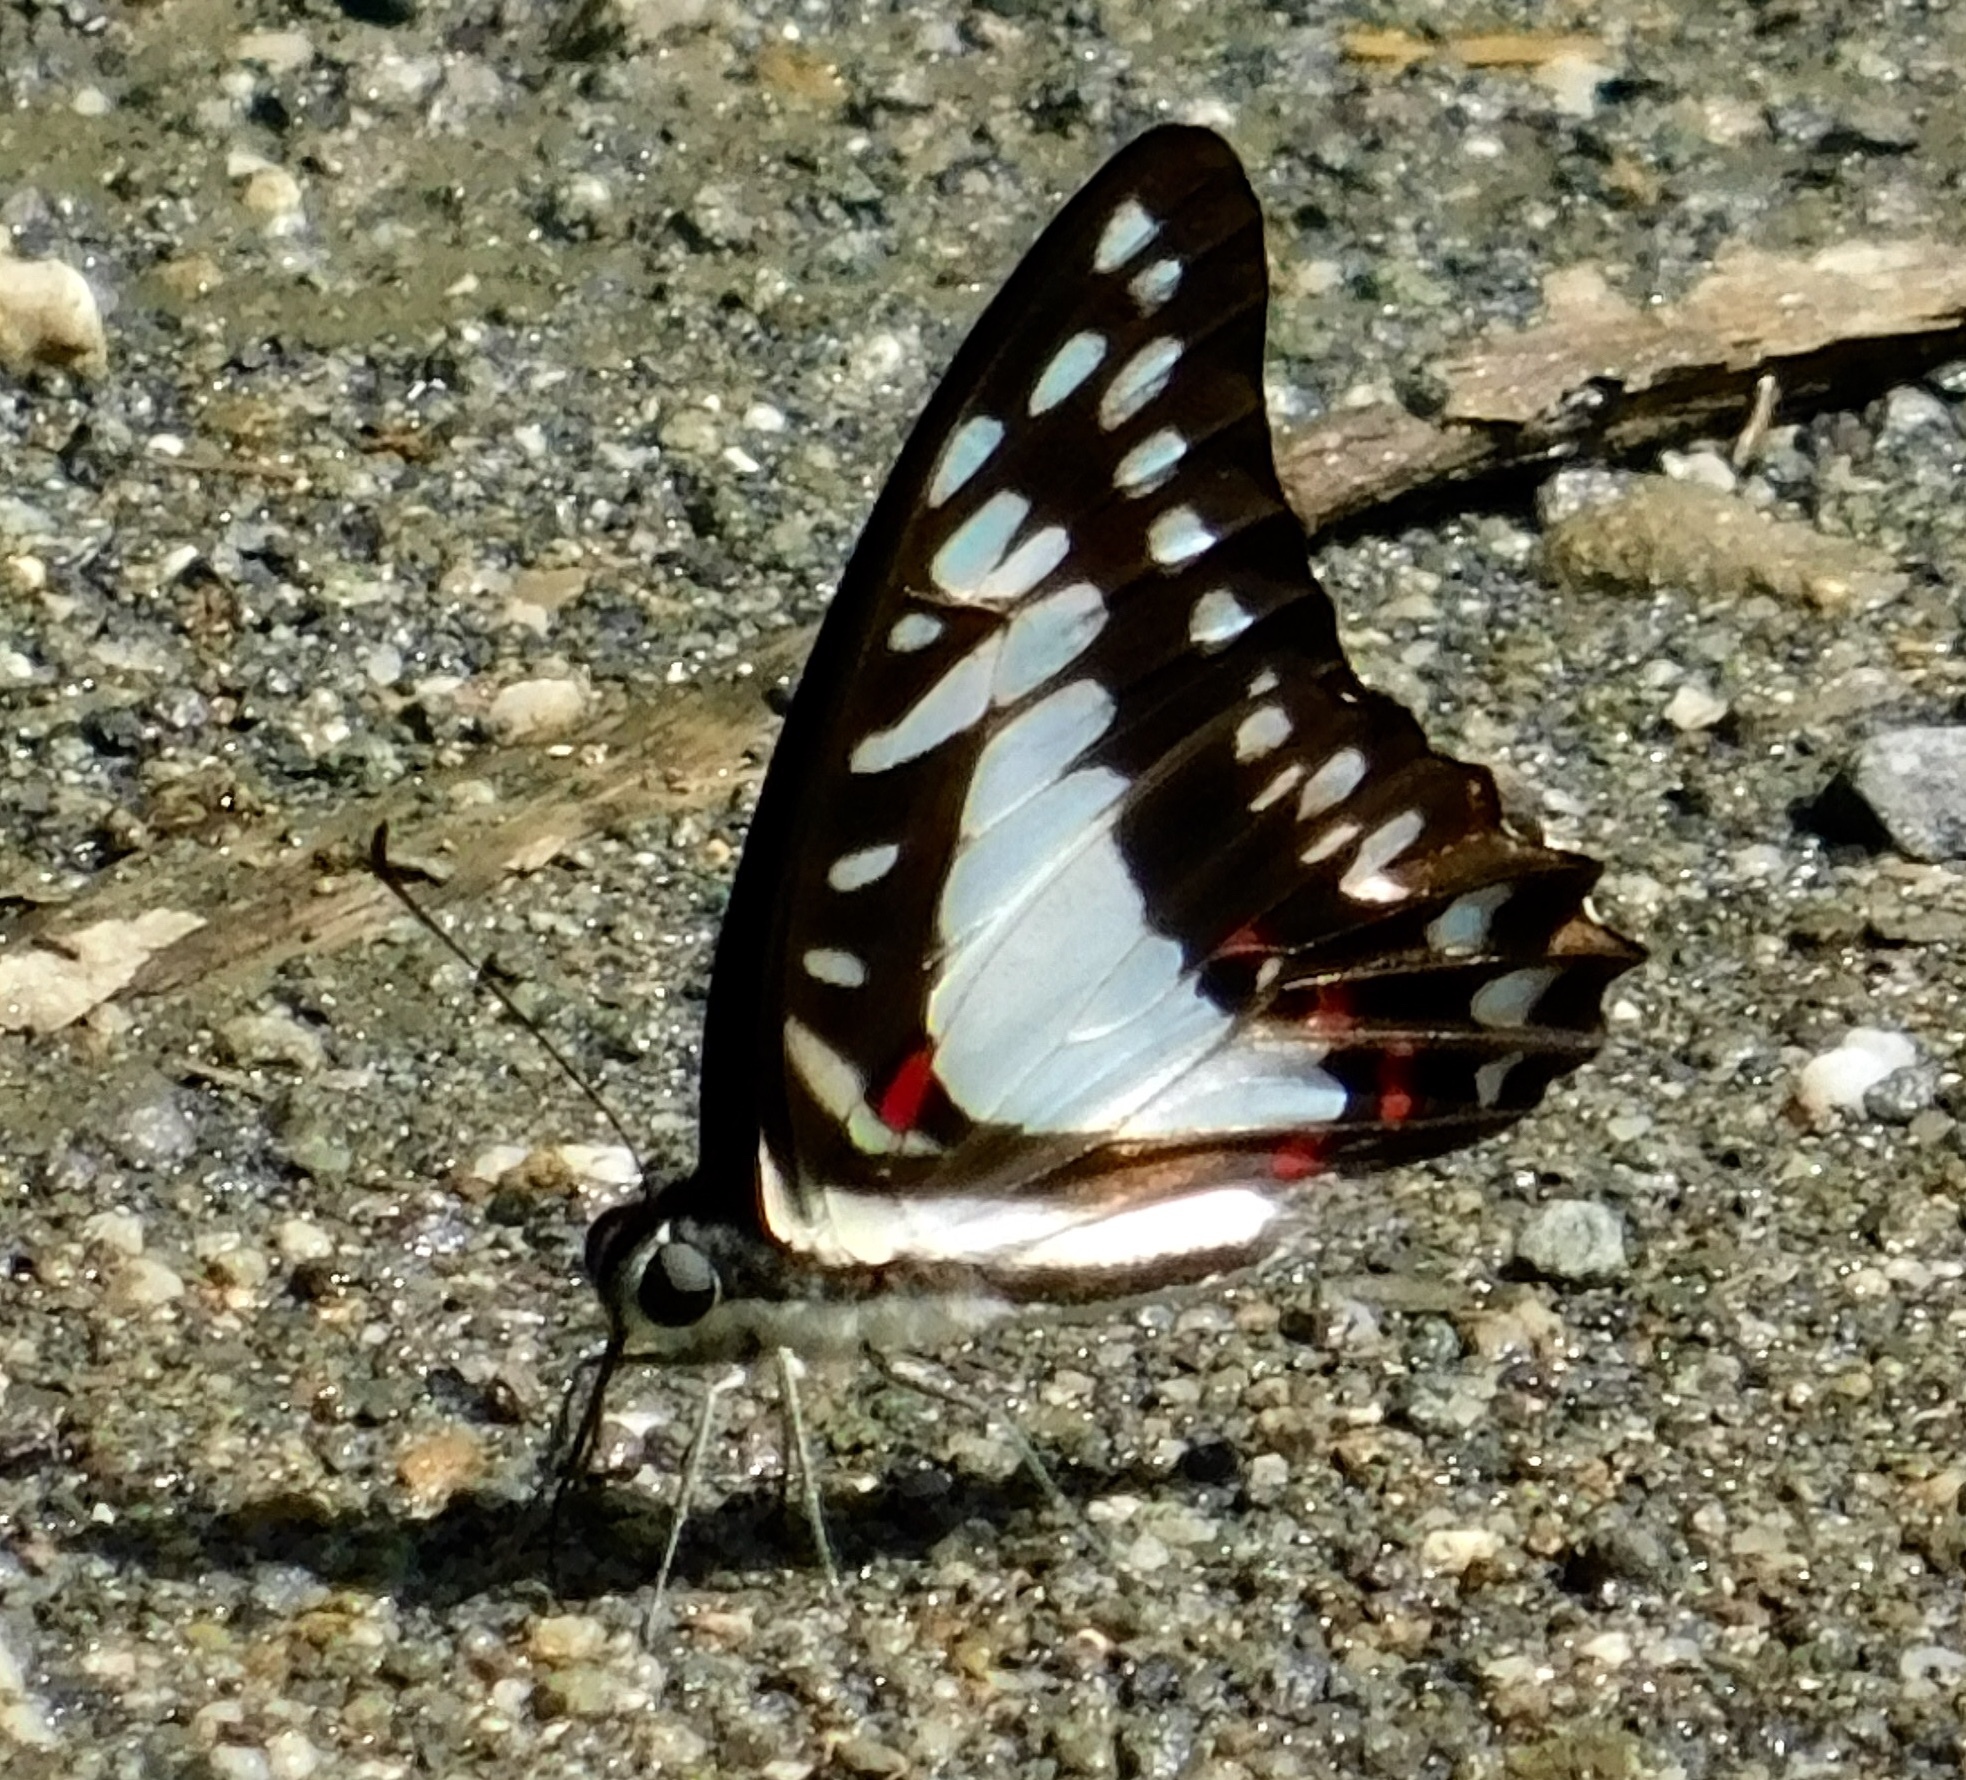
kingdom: Animalia
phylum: Arthropoda
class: Insecta
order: Lepidoptera
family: Papilionidae
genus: Graphium
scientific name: Graphium eurypylus
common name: Great jay
